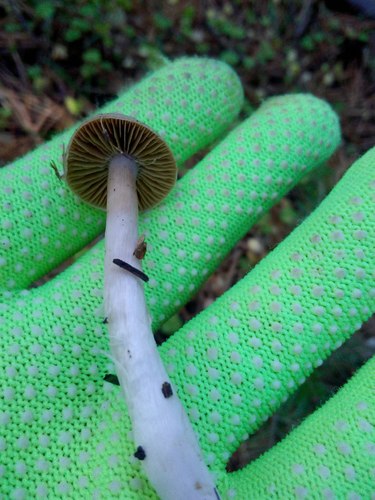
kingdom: Fungi
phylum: Basidiomycota
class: Agaricomycetes
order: Agaricales
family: Cortinariaceae
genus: Cortinarius
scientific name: Cortinarius
